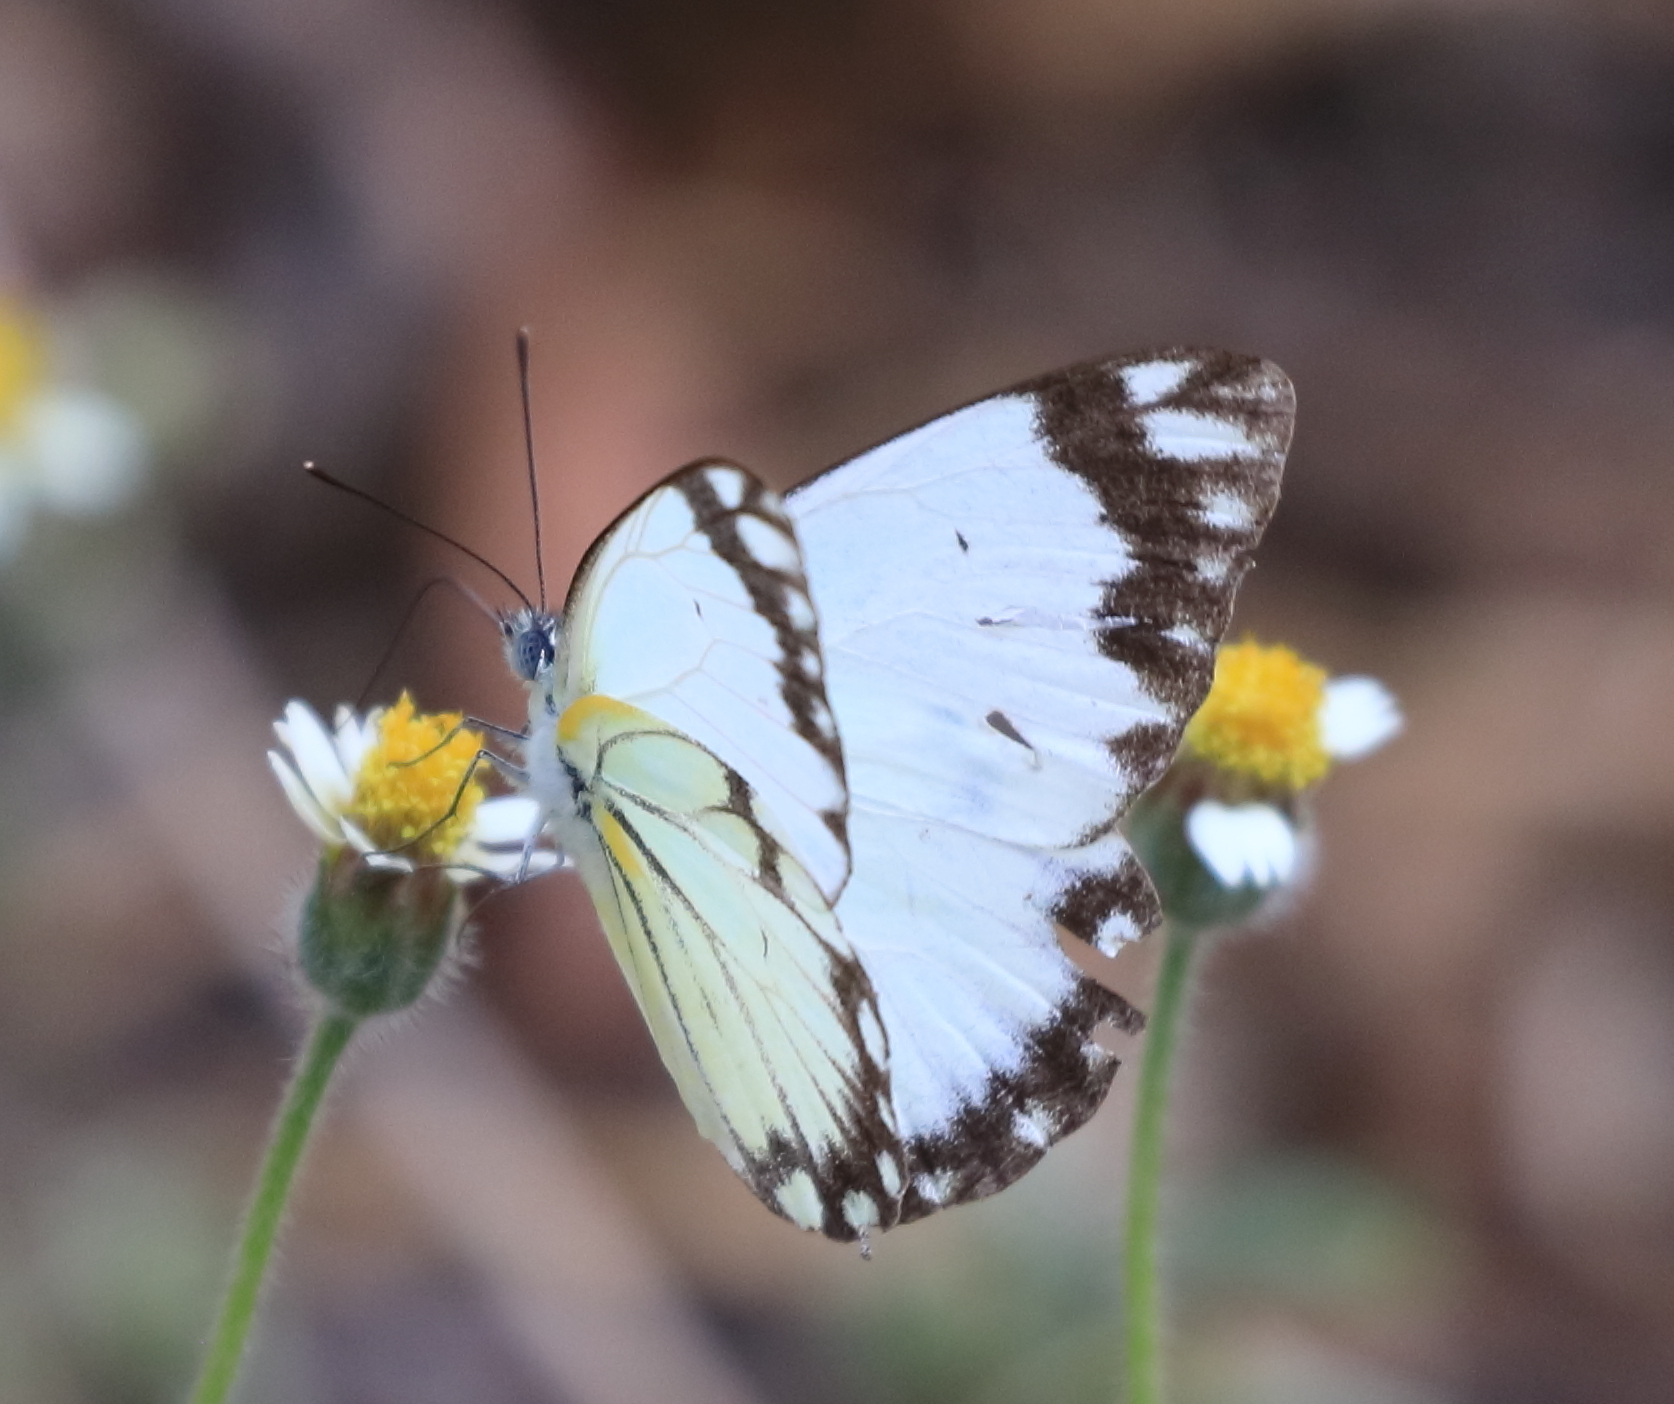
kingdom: Animalia
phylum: Arthropoda
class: Insecta
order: Lepidoptera
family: Pieridae
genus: Belenois
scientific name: Belenois creona
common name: African caper white
